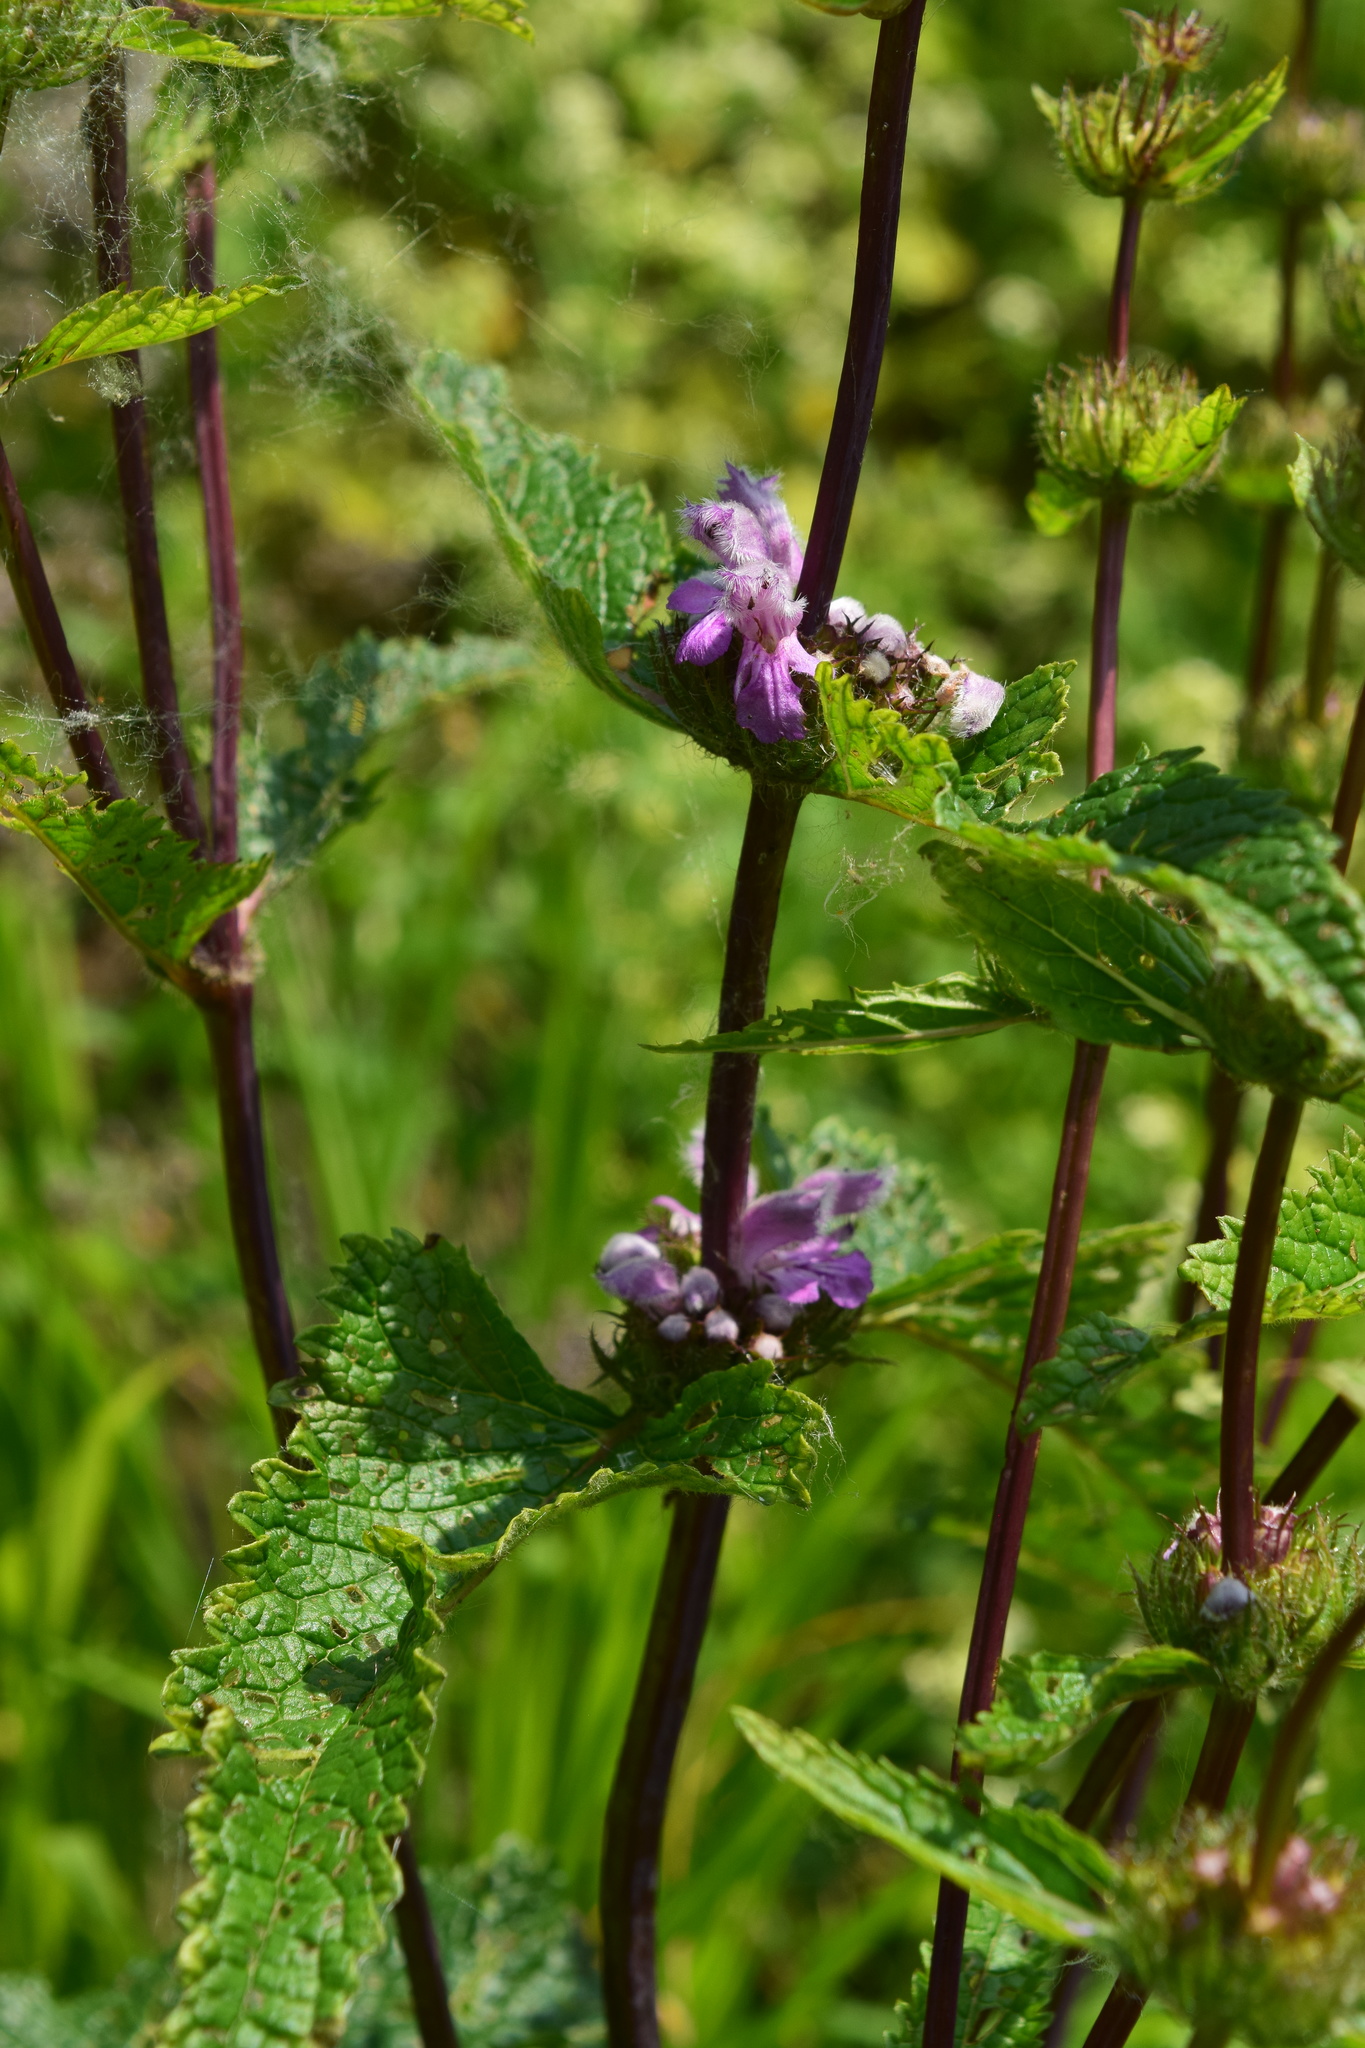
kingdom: Plantae
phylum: Tracheophyta
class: Magnoliopsida
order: Lamiales
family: Lamiaceae
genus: Phlomoides
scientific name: Phlomoides tuberosa
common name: Tuberous jerusalem sage
